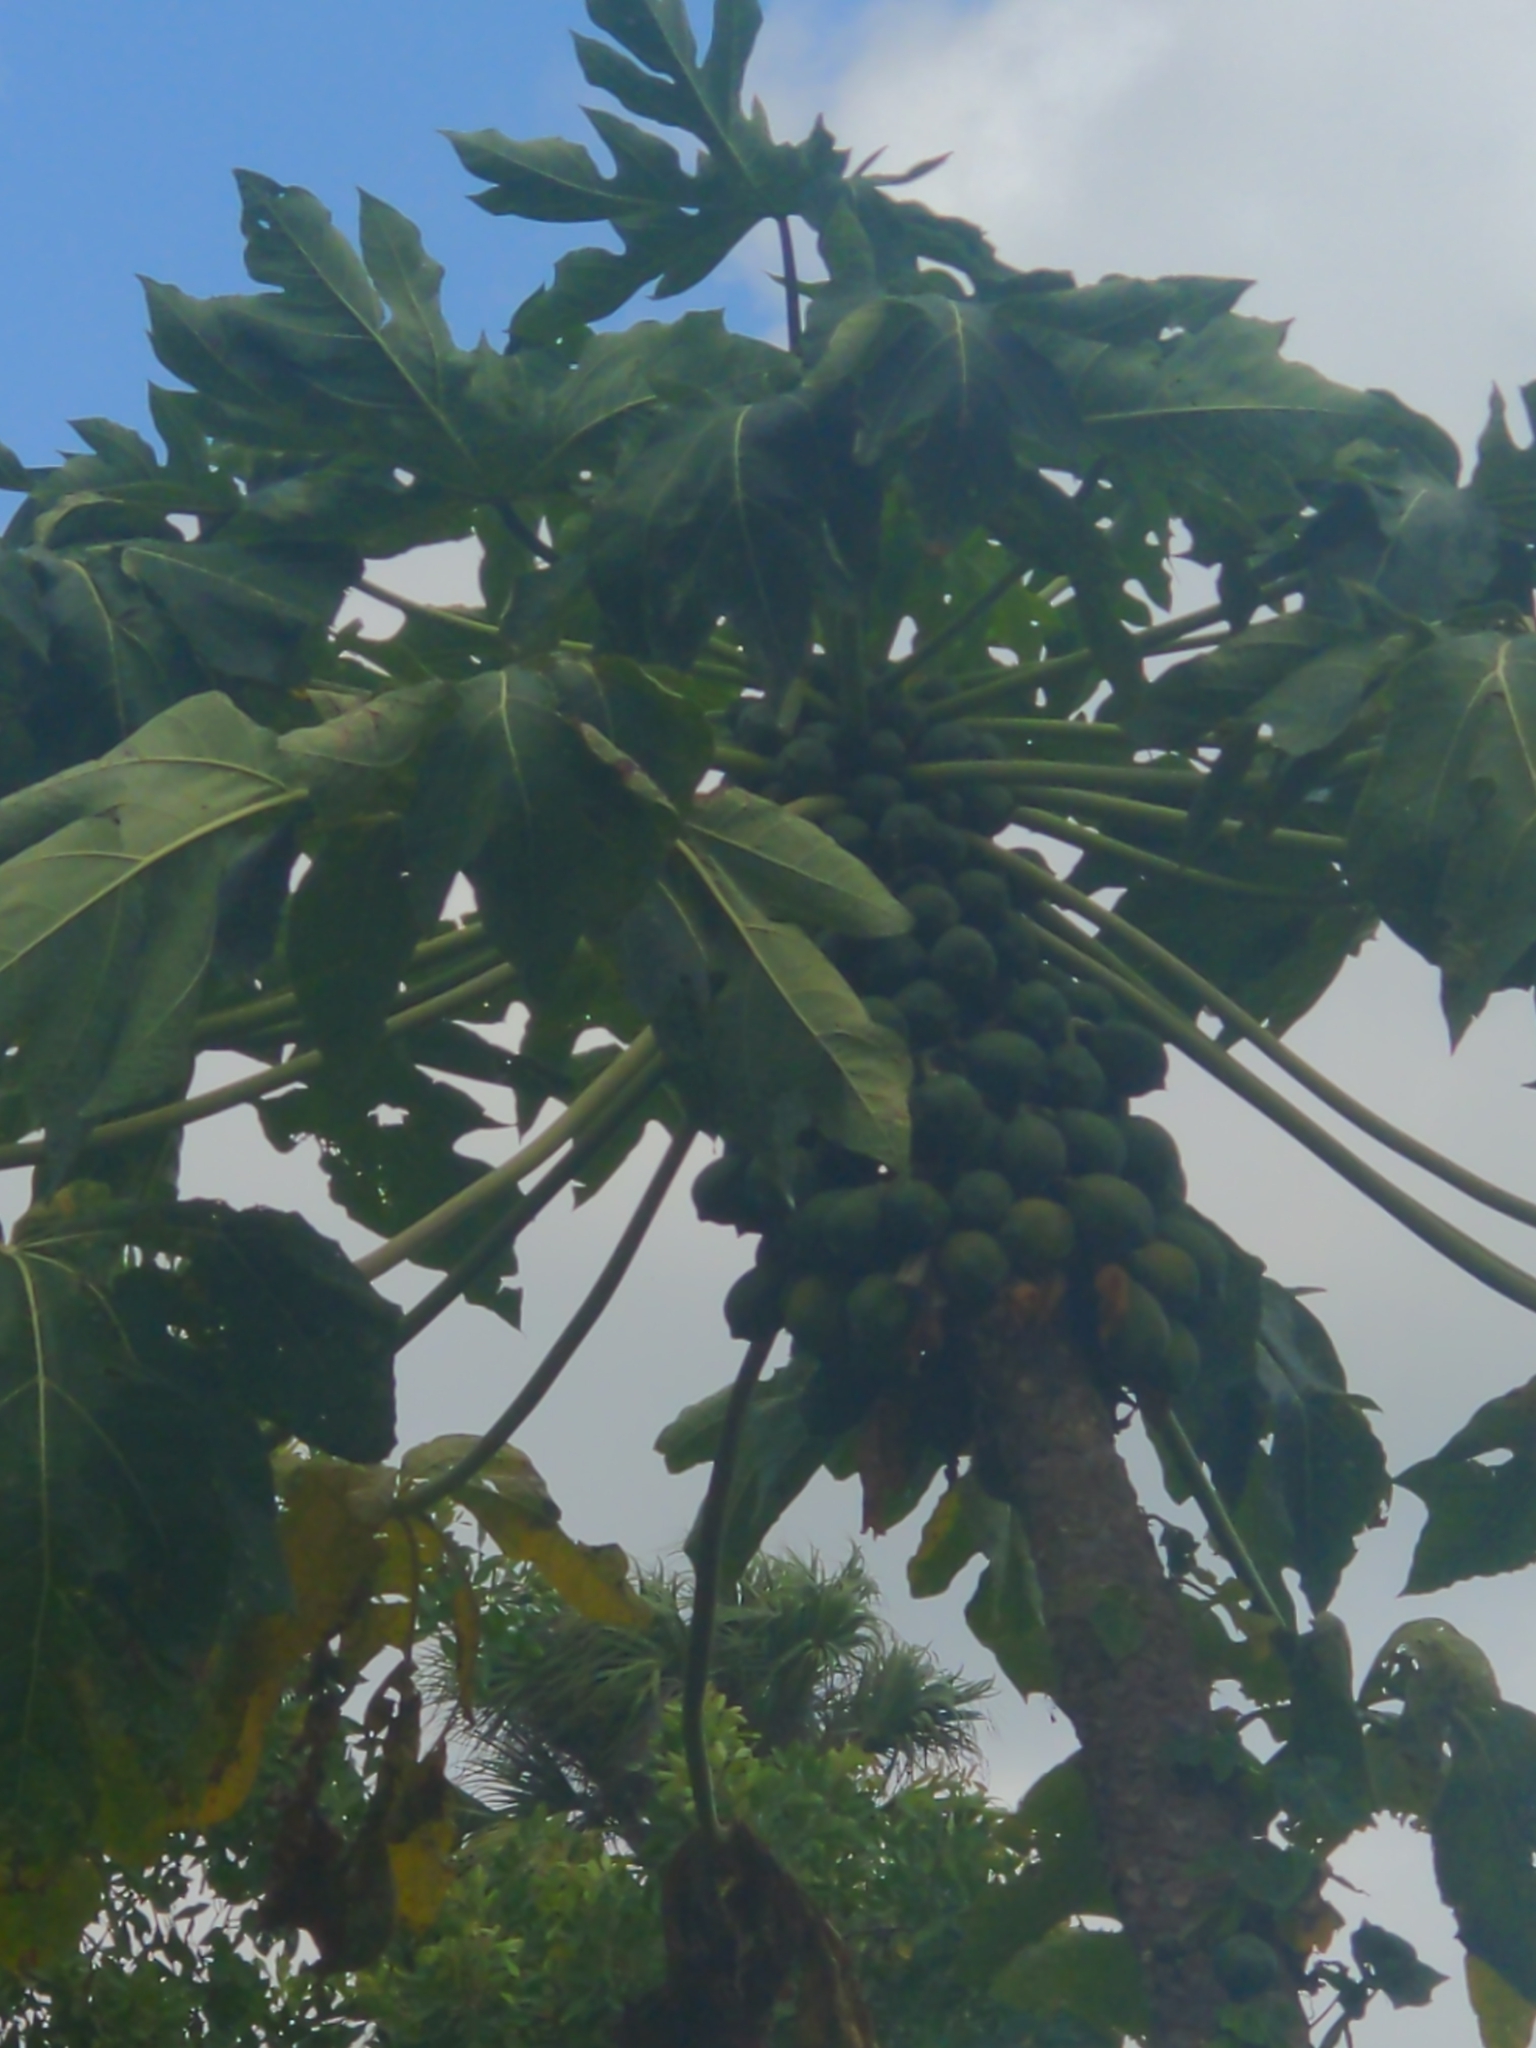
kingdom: Plantae
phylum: Tracheophyta
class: Magnoliopsida
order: Brassicales
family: Caricaceae
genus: Carica
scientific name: Carica papaya
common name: Papaya
